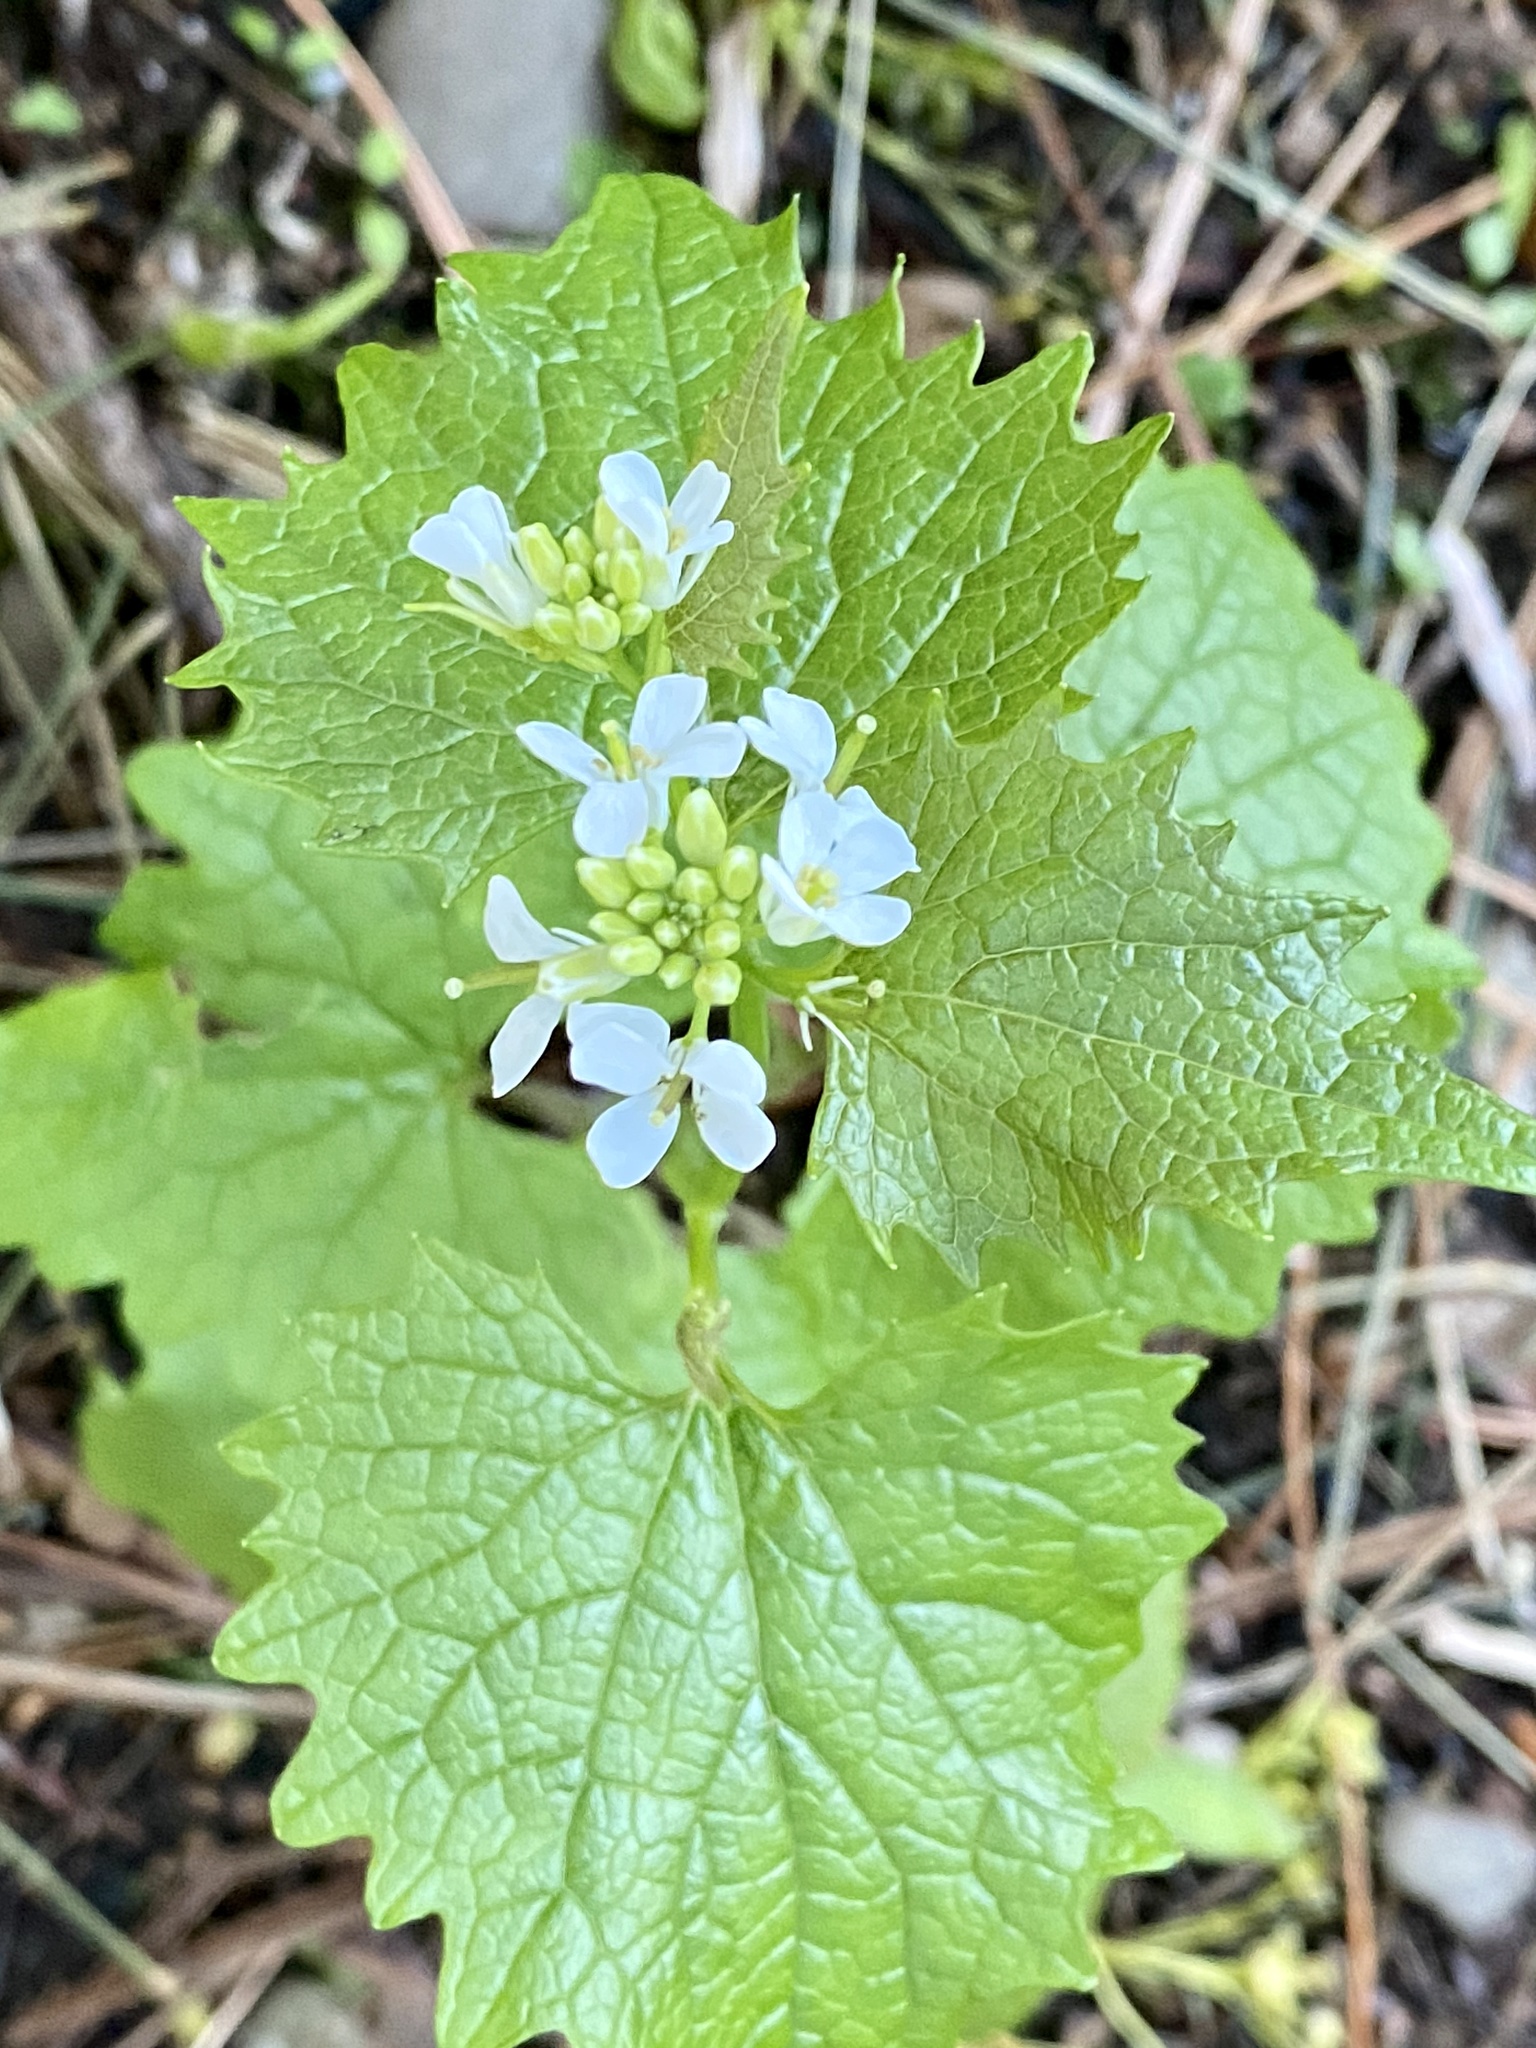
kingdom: Plantae
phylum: Tracheophyta
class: Magnoliopsida
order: Brassicales
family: Brassicaceae
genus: Alliaria
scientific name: Alliaria petiolata
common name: Garlic mustard
